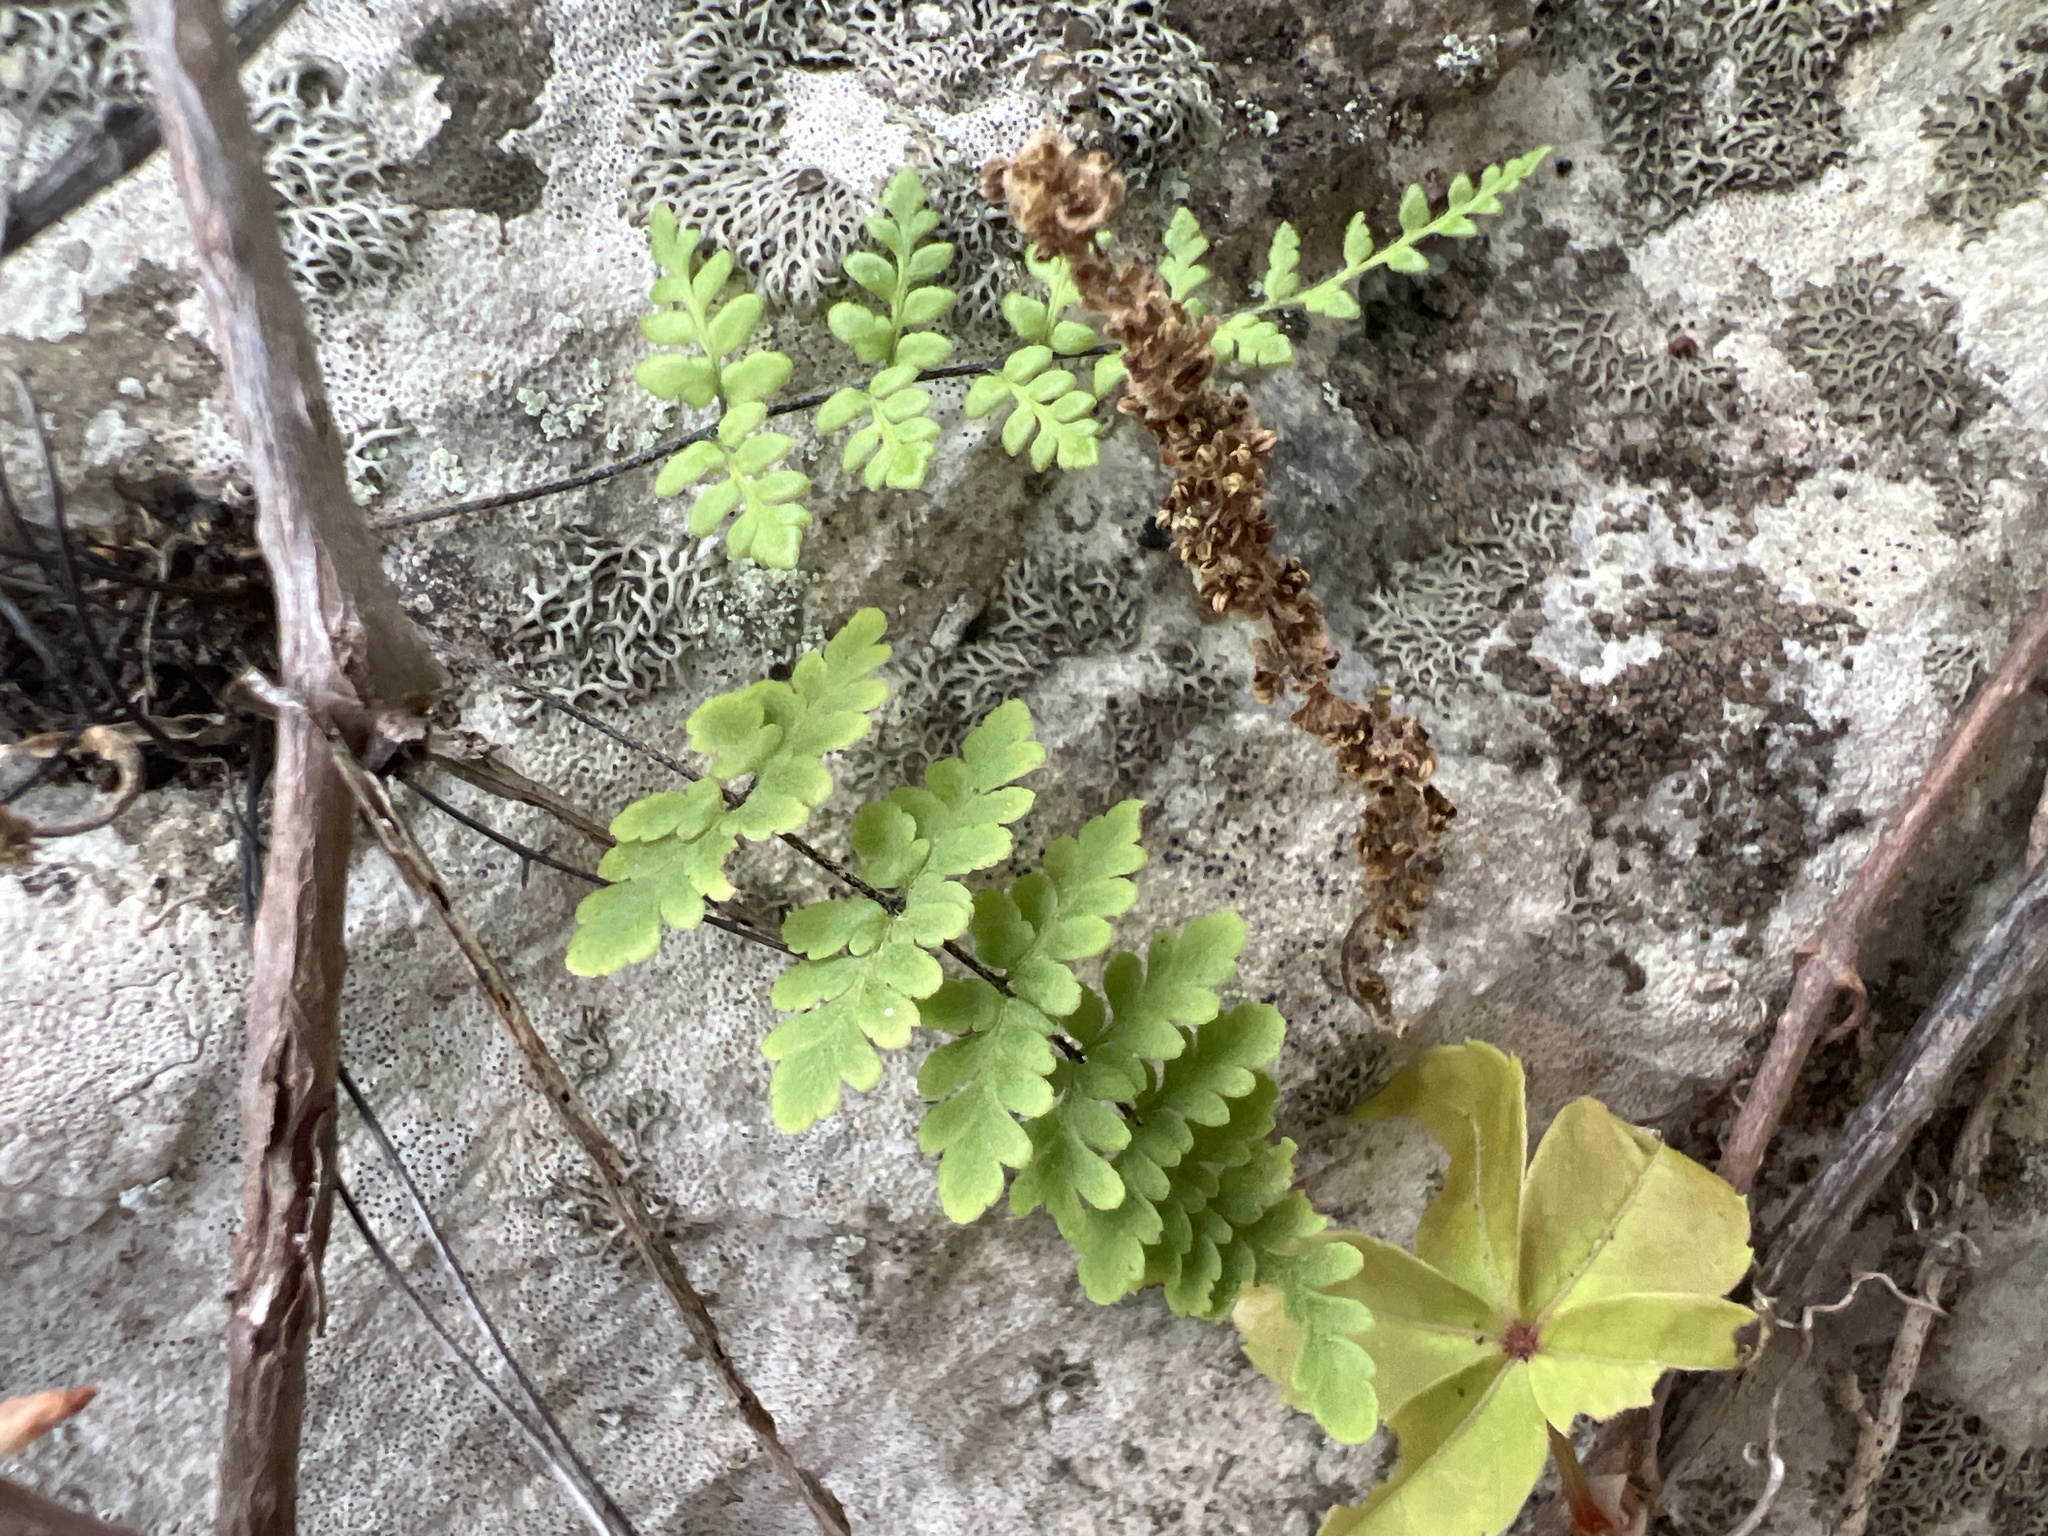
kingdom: Plantae
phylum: Tracheophyta
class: Polypodiopsida
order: Polypodiales
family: Pteridaceae
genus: Myriopteris
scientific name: Myriopteris alabamensis
